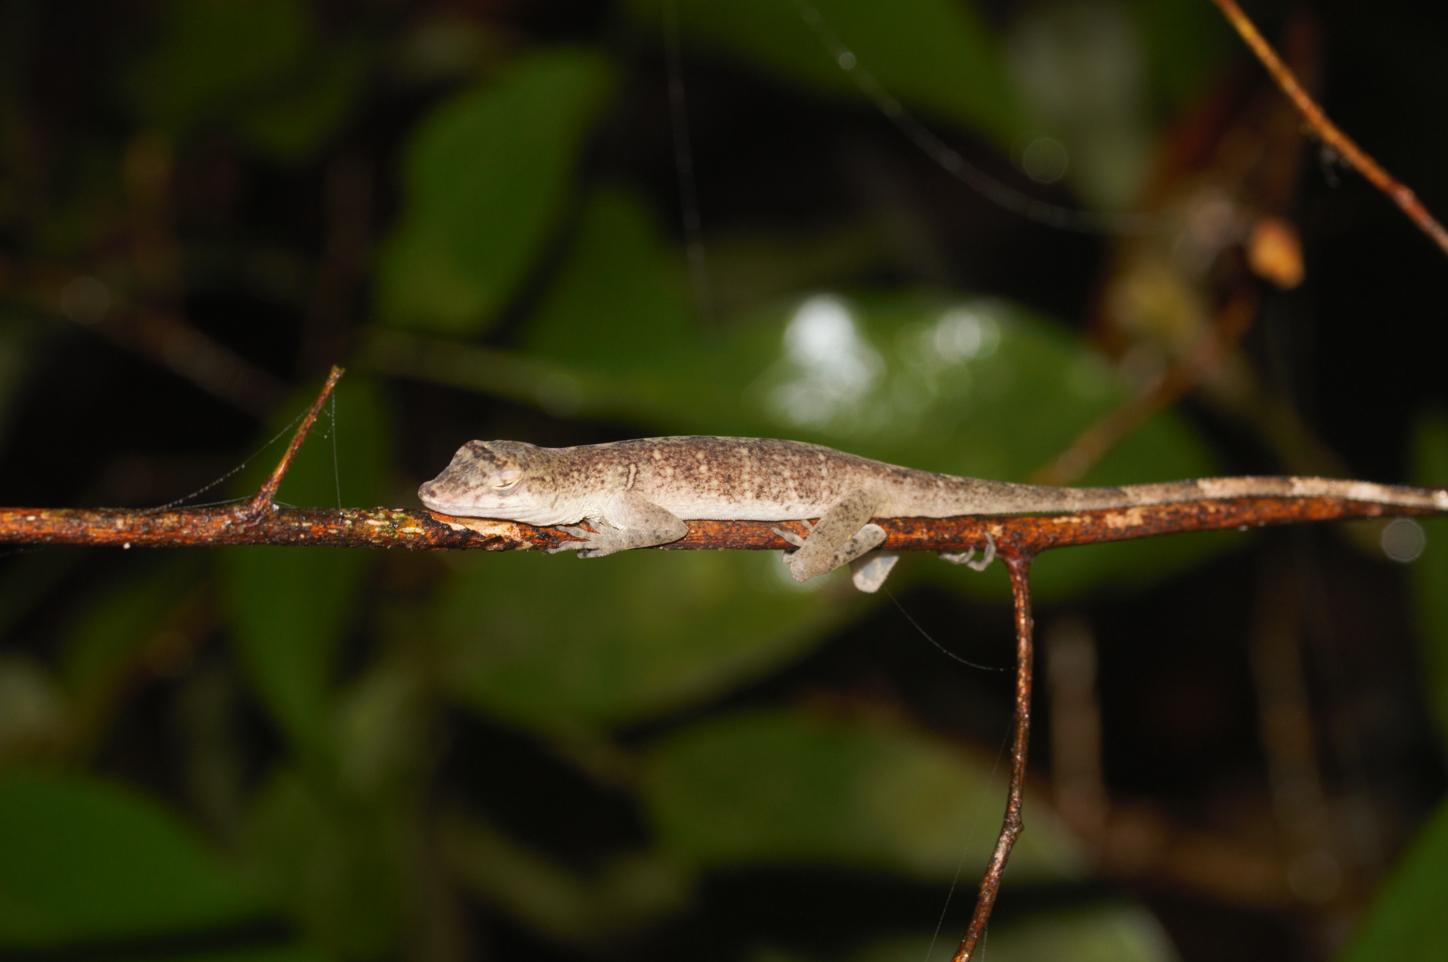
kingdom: Animalia
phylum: Chordata
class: Squamata
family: Dactyloidae
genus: Anolis
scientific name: Anolis fuscoauratus
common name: Brown-eared anole
